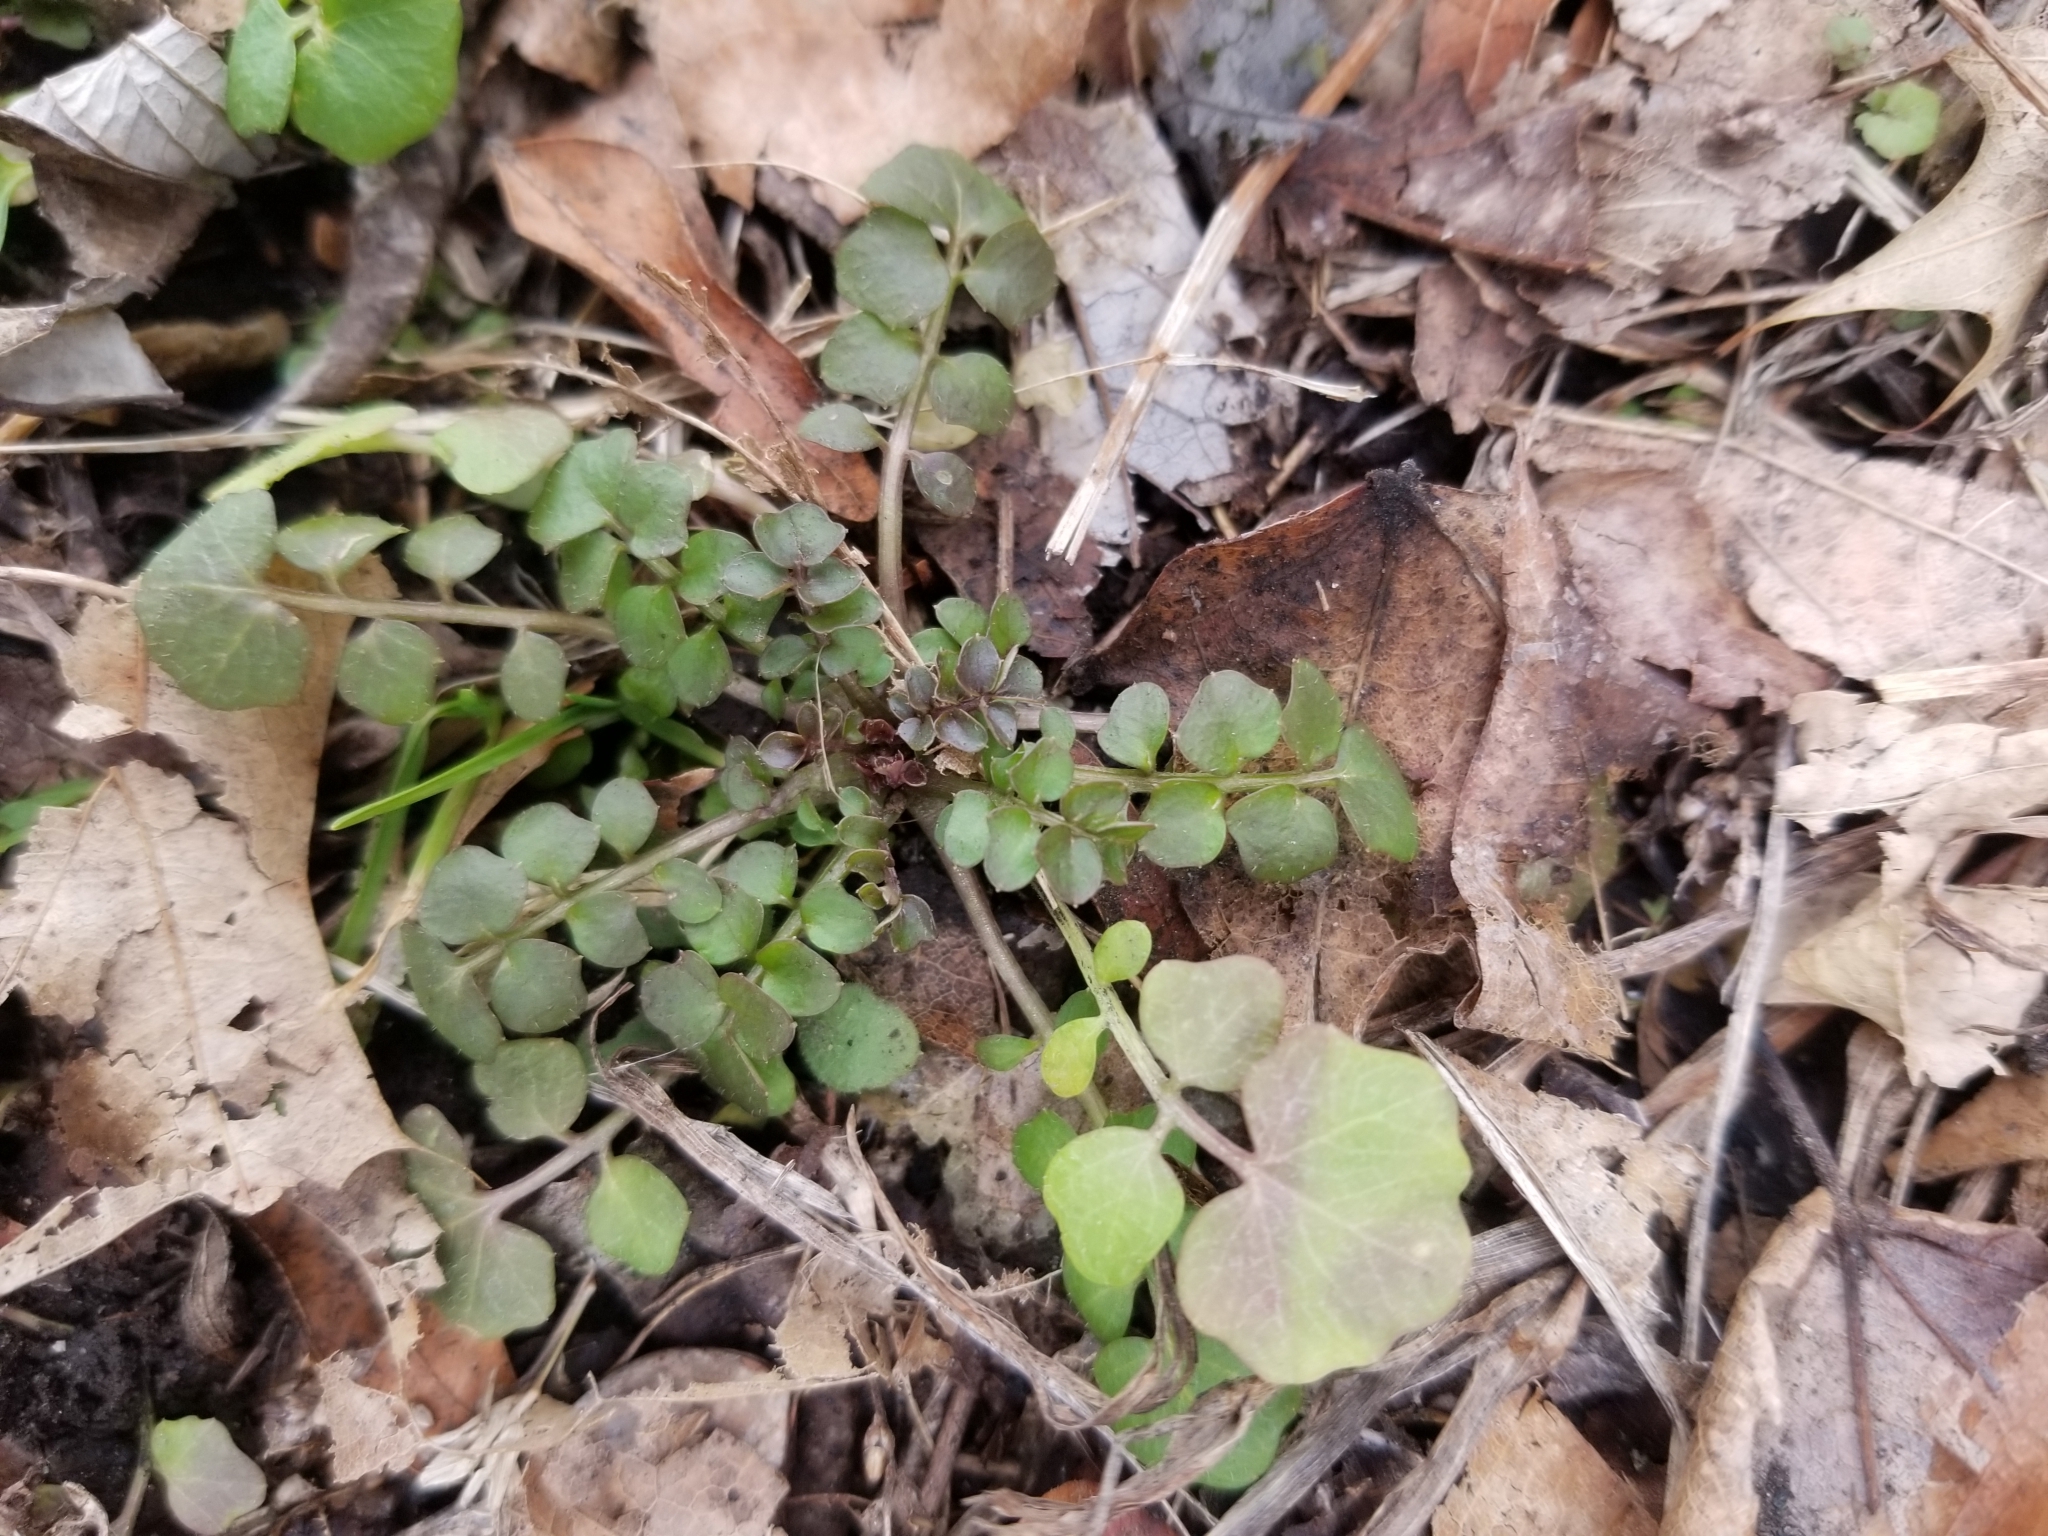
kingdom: Plantae
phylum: Tracheophyta
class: Magnoliopsida
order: Brassicales
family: Brassicaceae
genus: Cardamine
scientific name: Cardamine pensylvanica
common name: Pennsylvania bittercress
